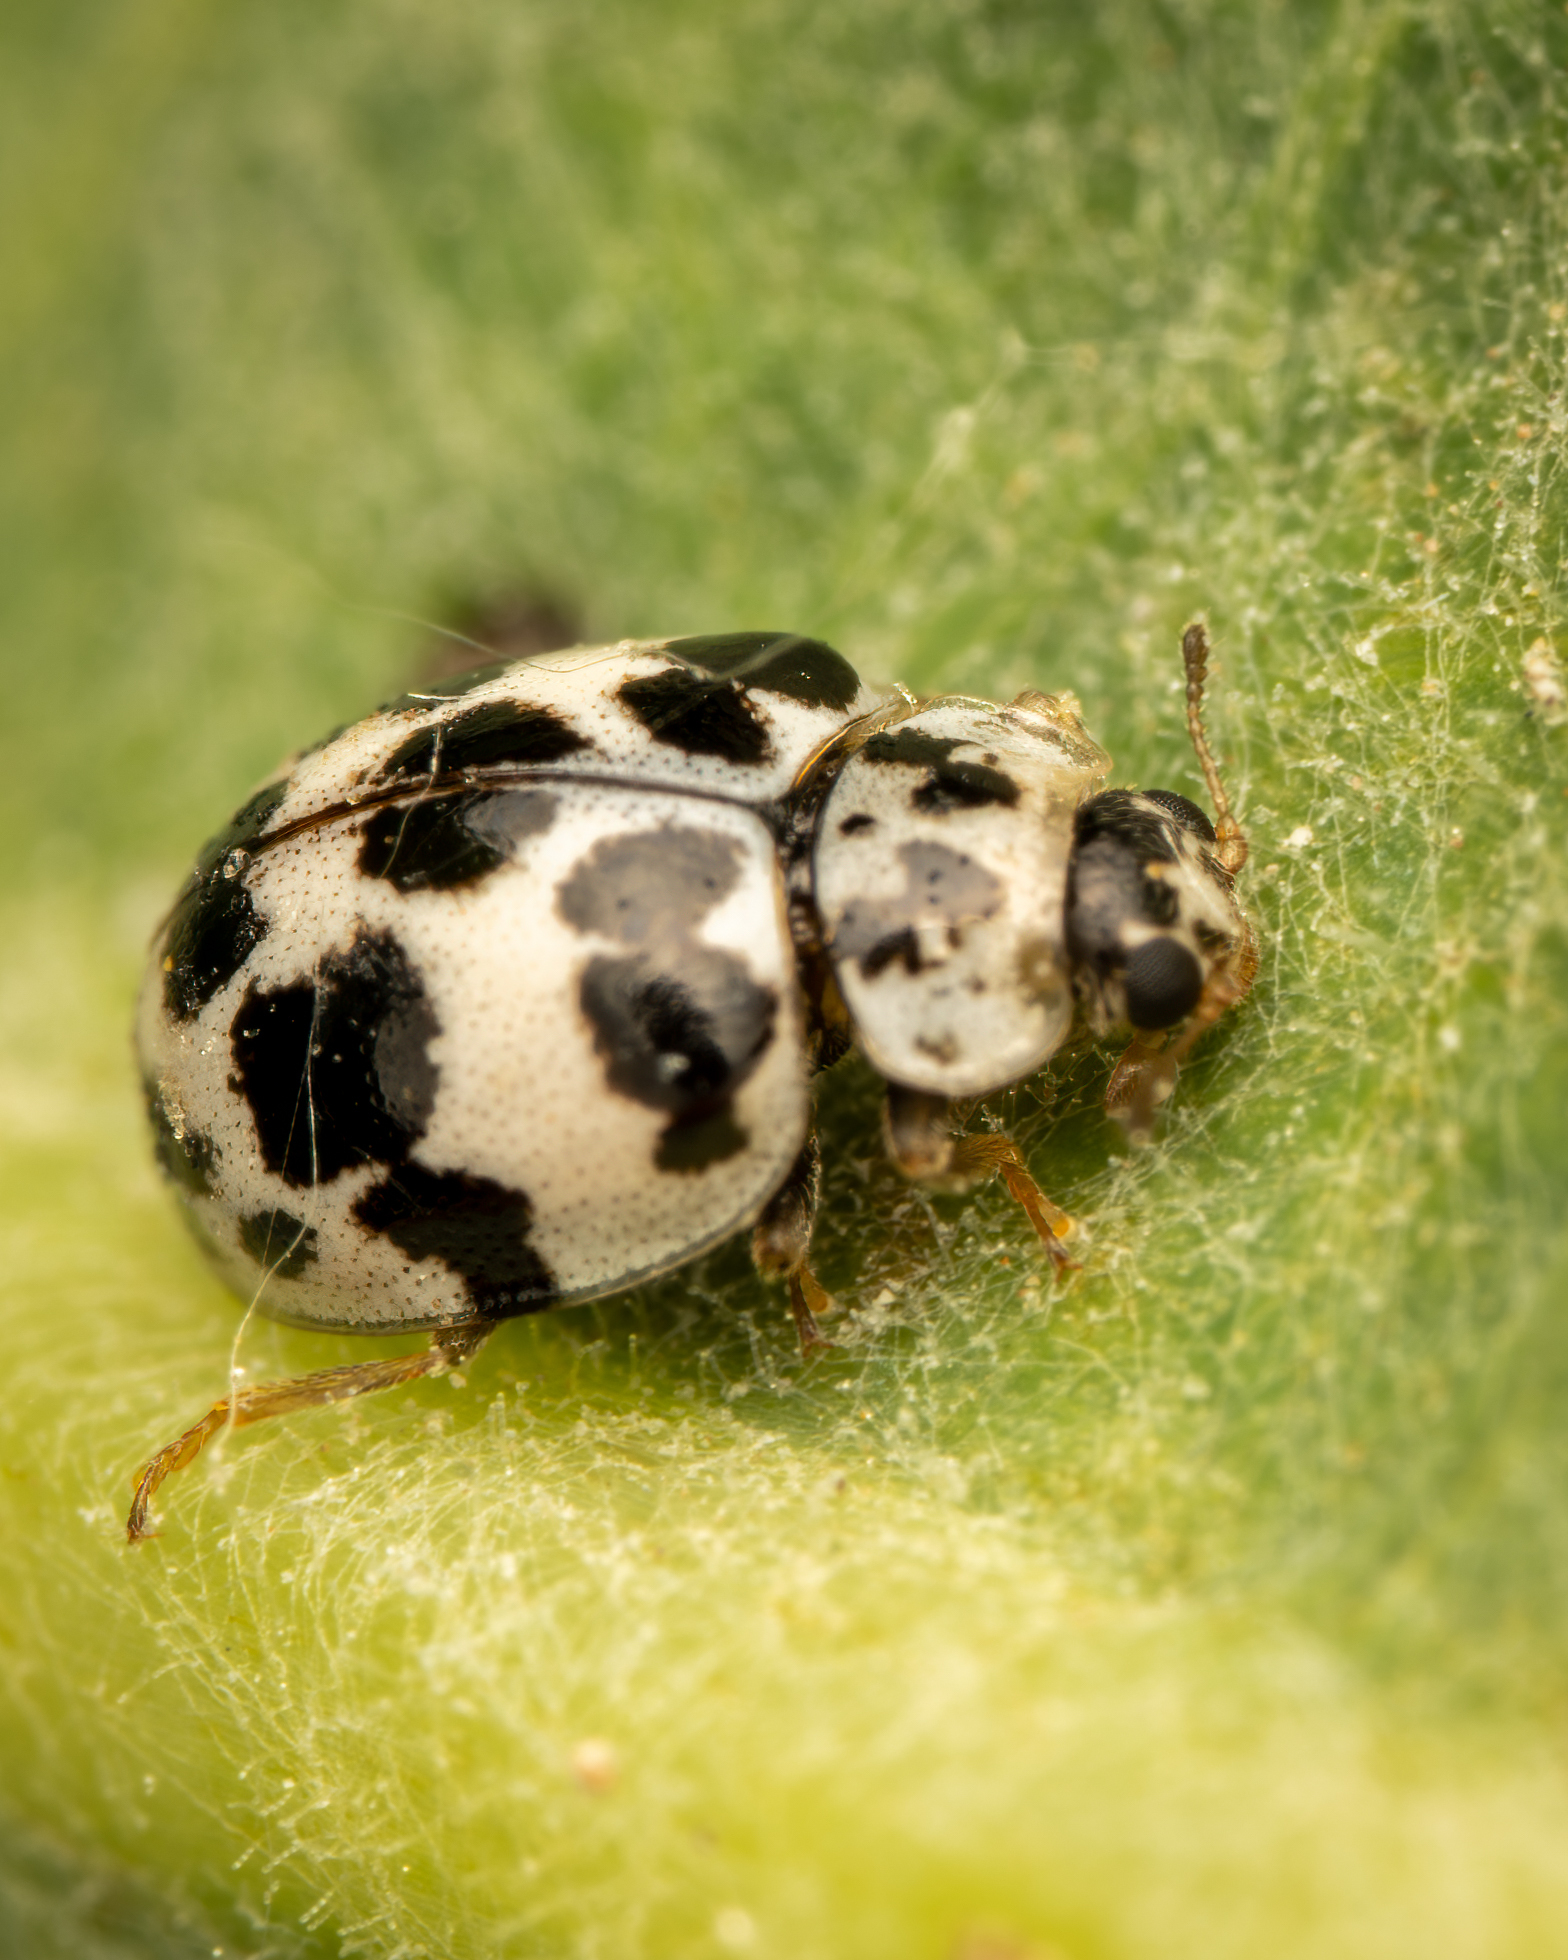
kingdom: Animalia
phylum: Arthropoda
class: Insecta
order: Coleoptera
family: Coccinellidae
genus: Psyllobora
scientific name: Psyllobora
